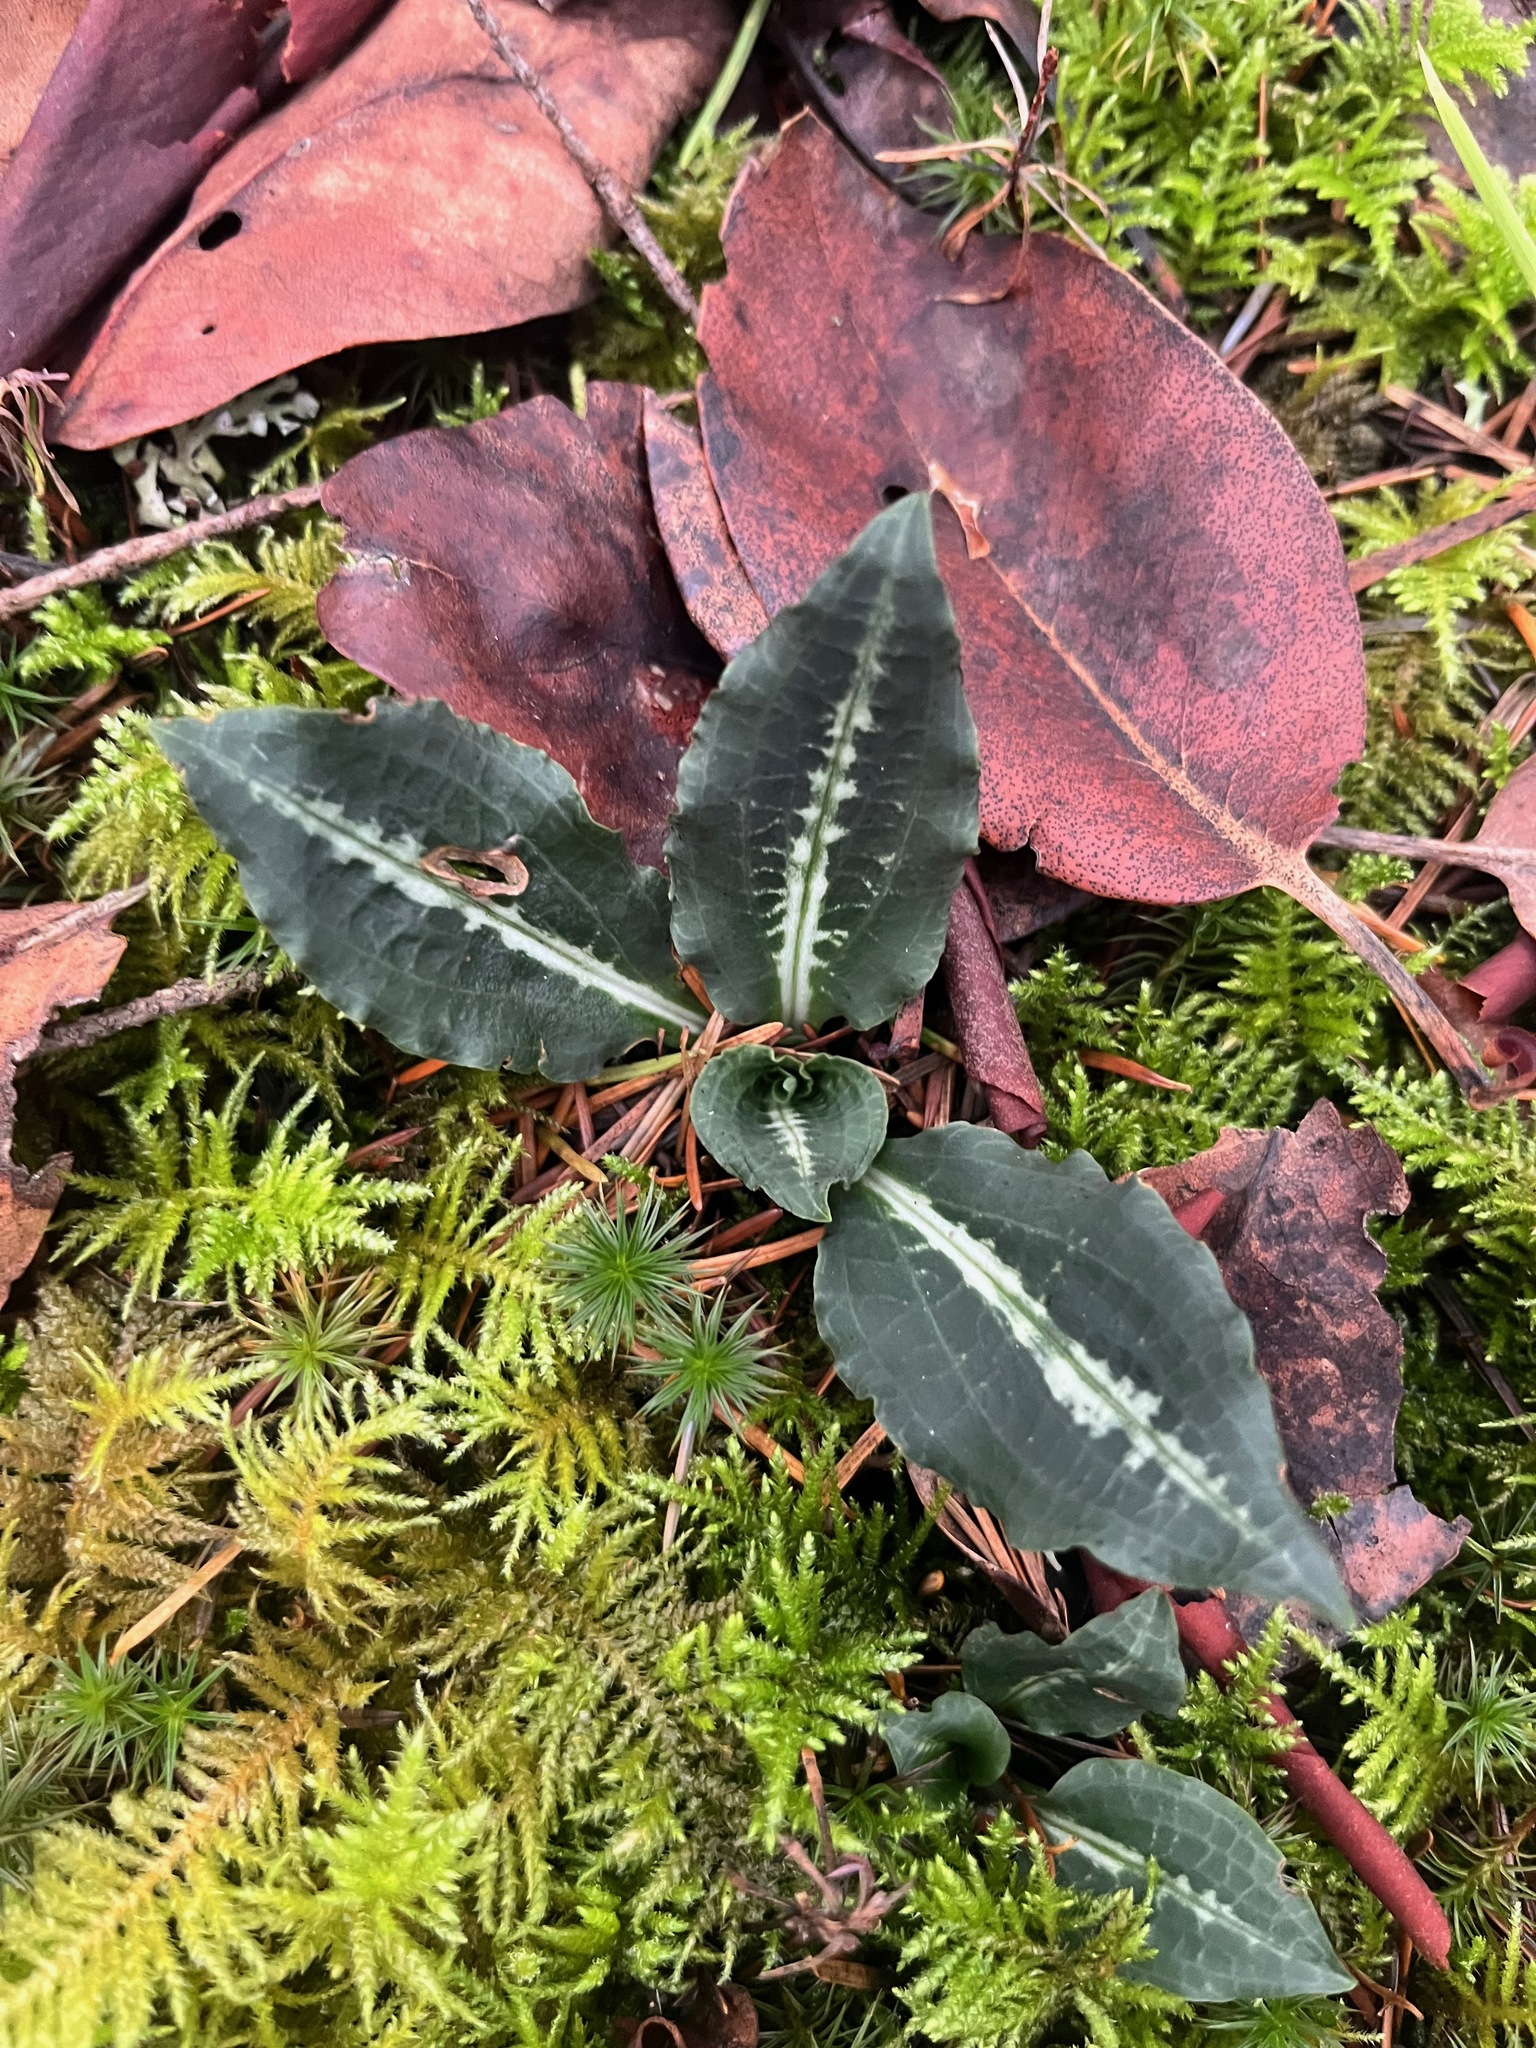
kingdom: Plantae
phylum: Tracheophyta
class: Liliopsida
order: Asparagales
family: Orchidaceae
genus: Goodyera
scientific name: Goodyera oblongifolia
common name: Giant rattlesnake-plantain
